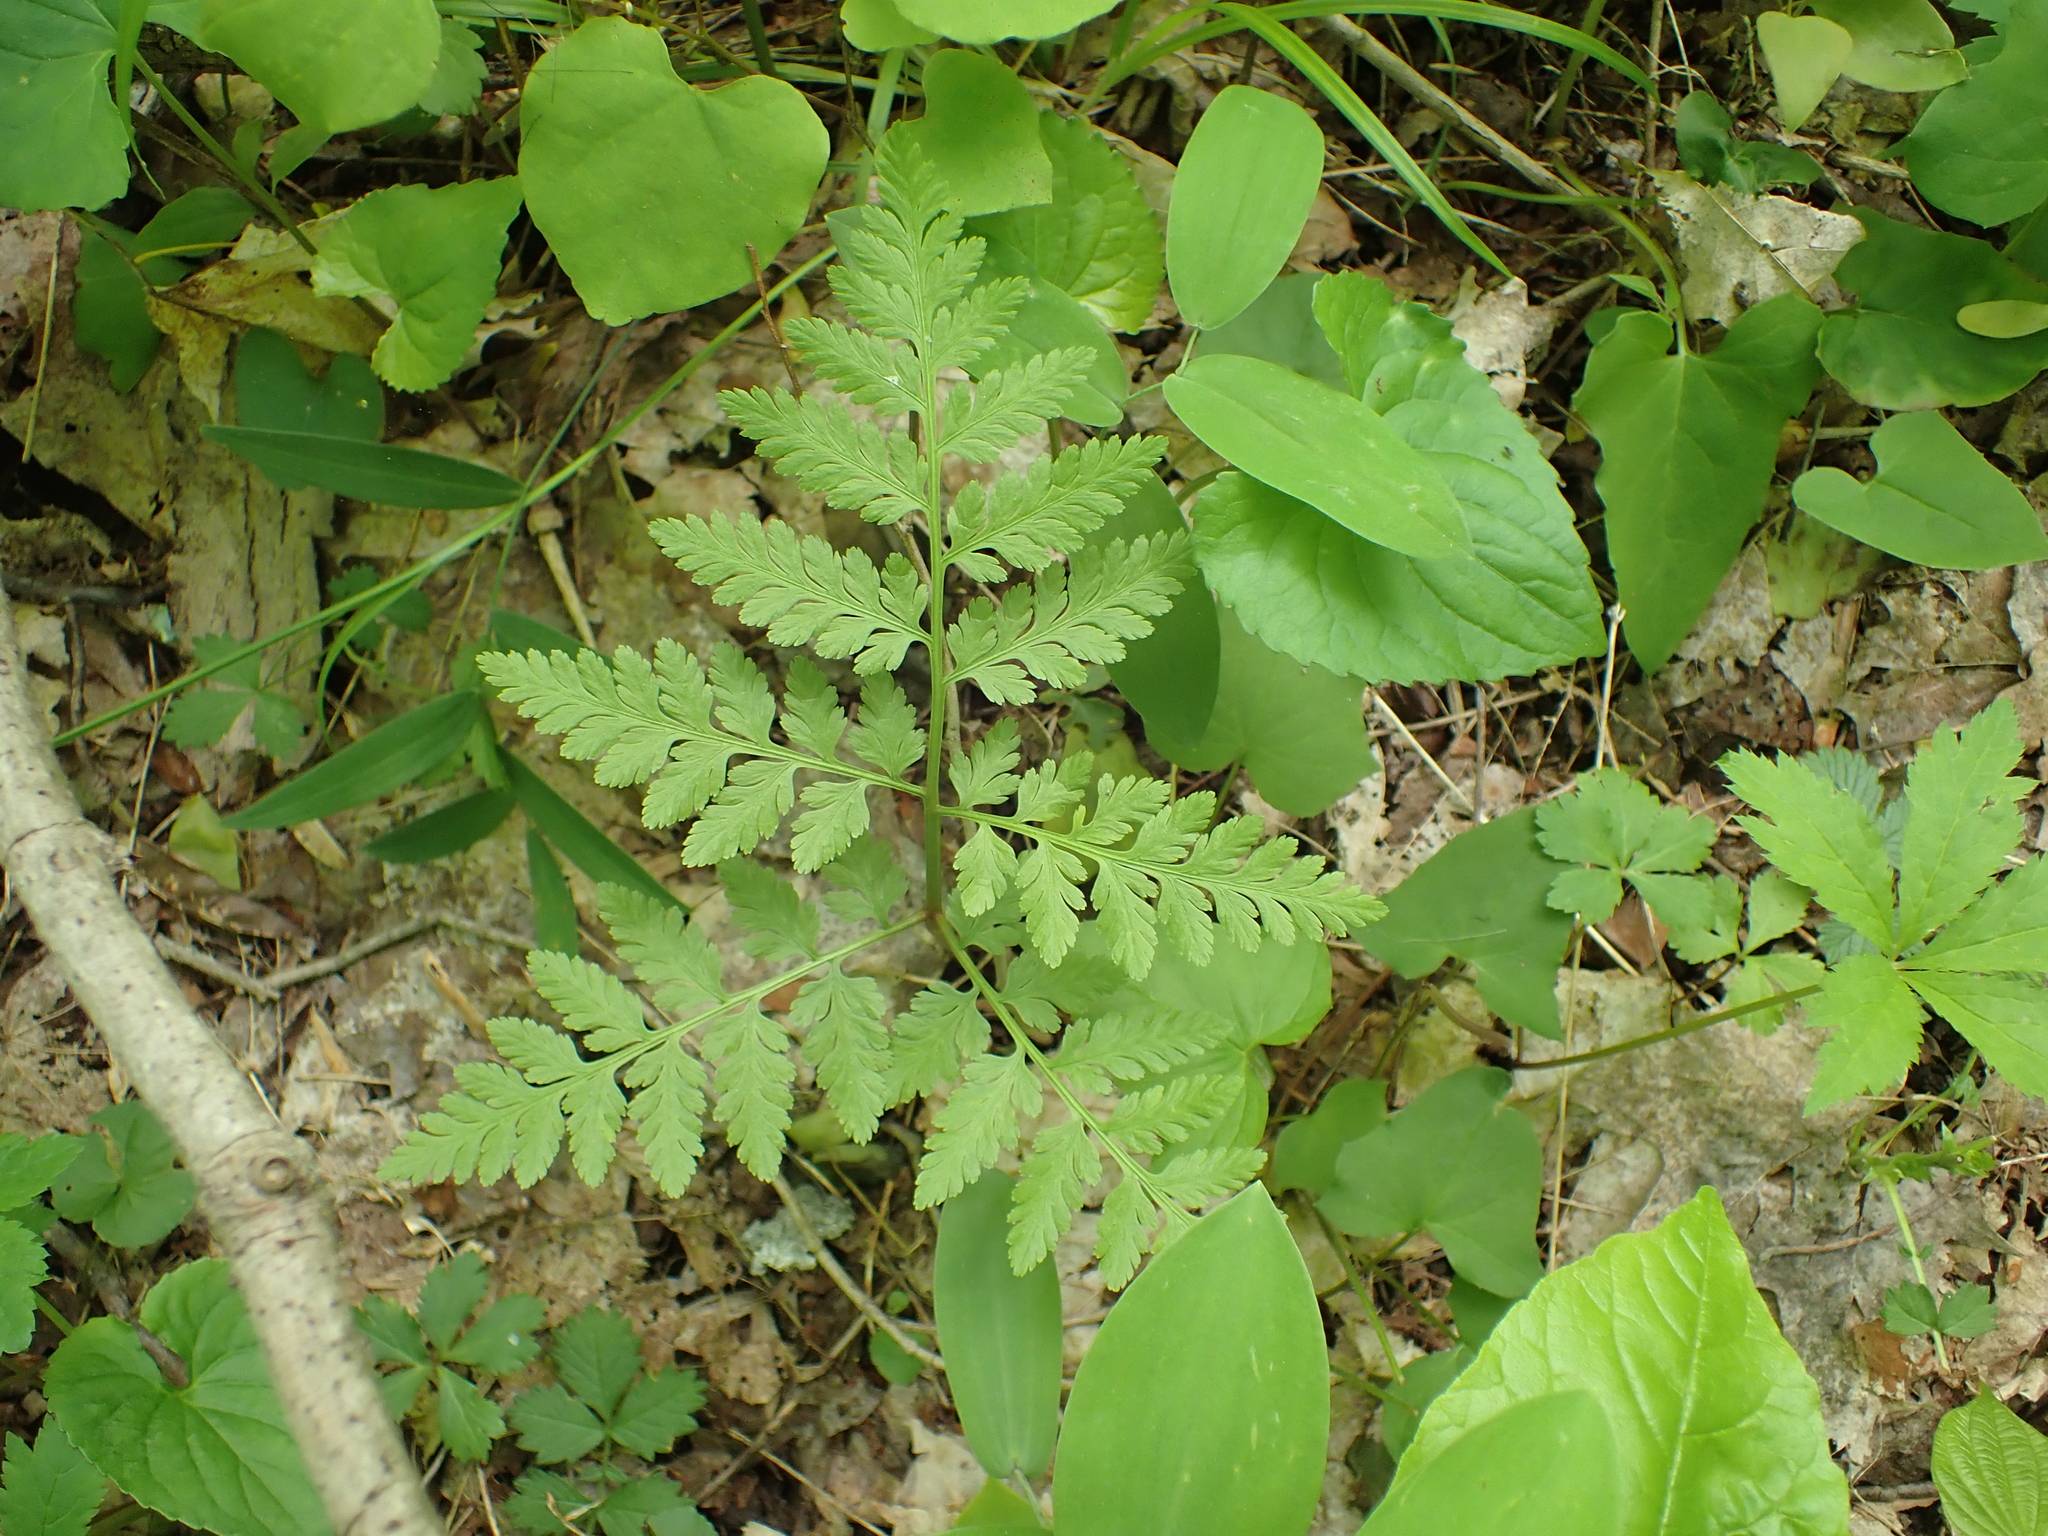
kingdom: Plantae
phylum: Tracheophyta
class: Polypodiopsida
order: Ophioglossales
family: Ophioglossaceae
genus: Botrypus
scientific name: Botrypus virginianus
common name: Common grapefern
